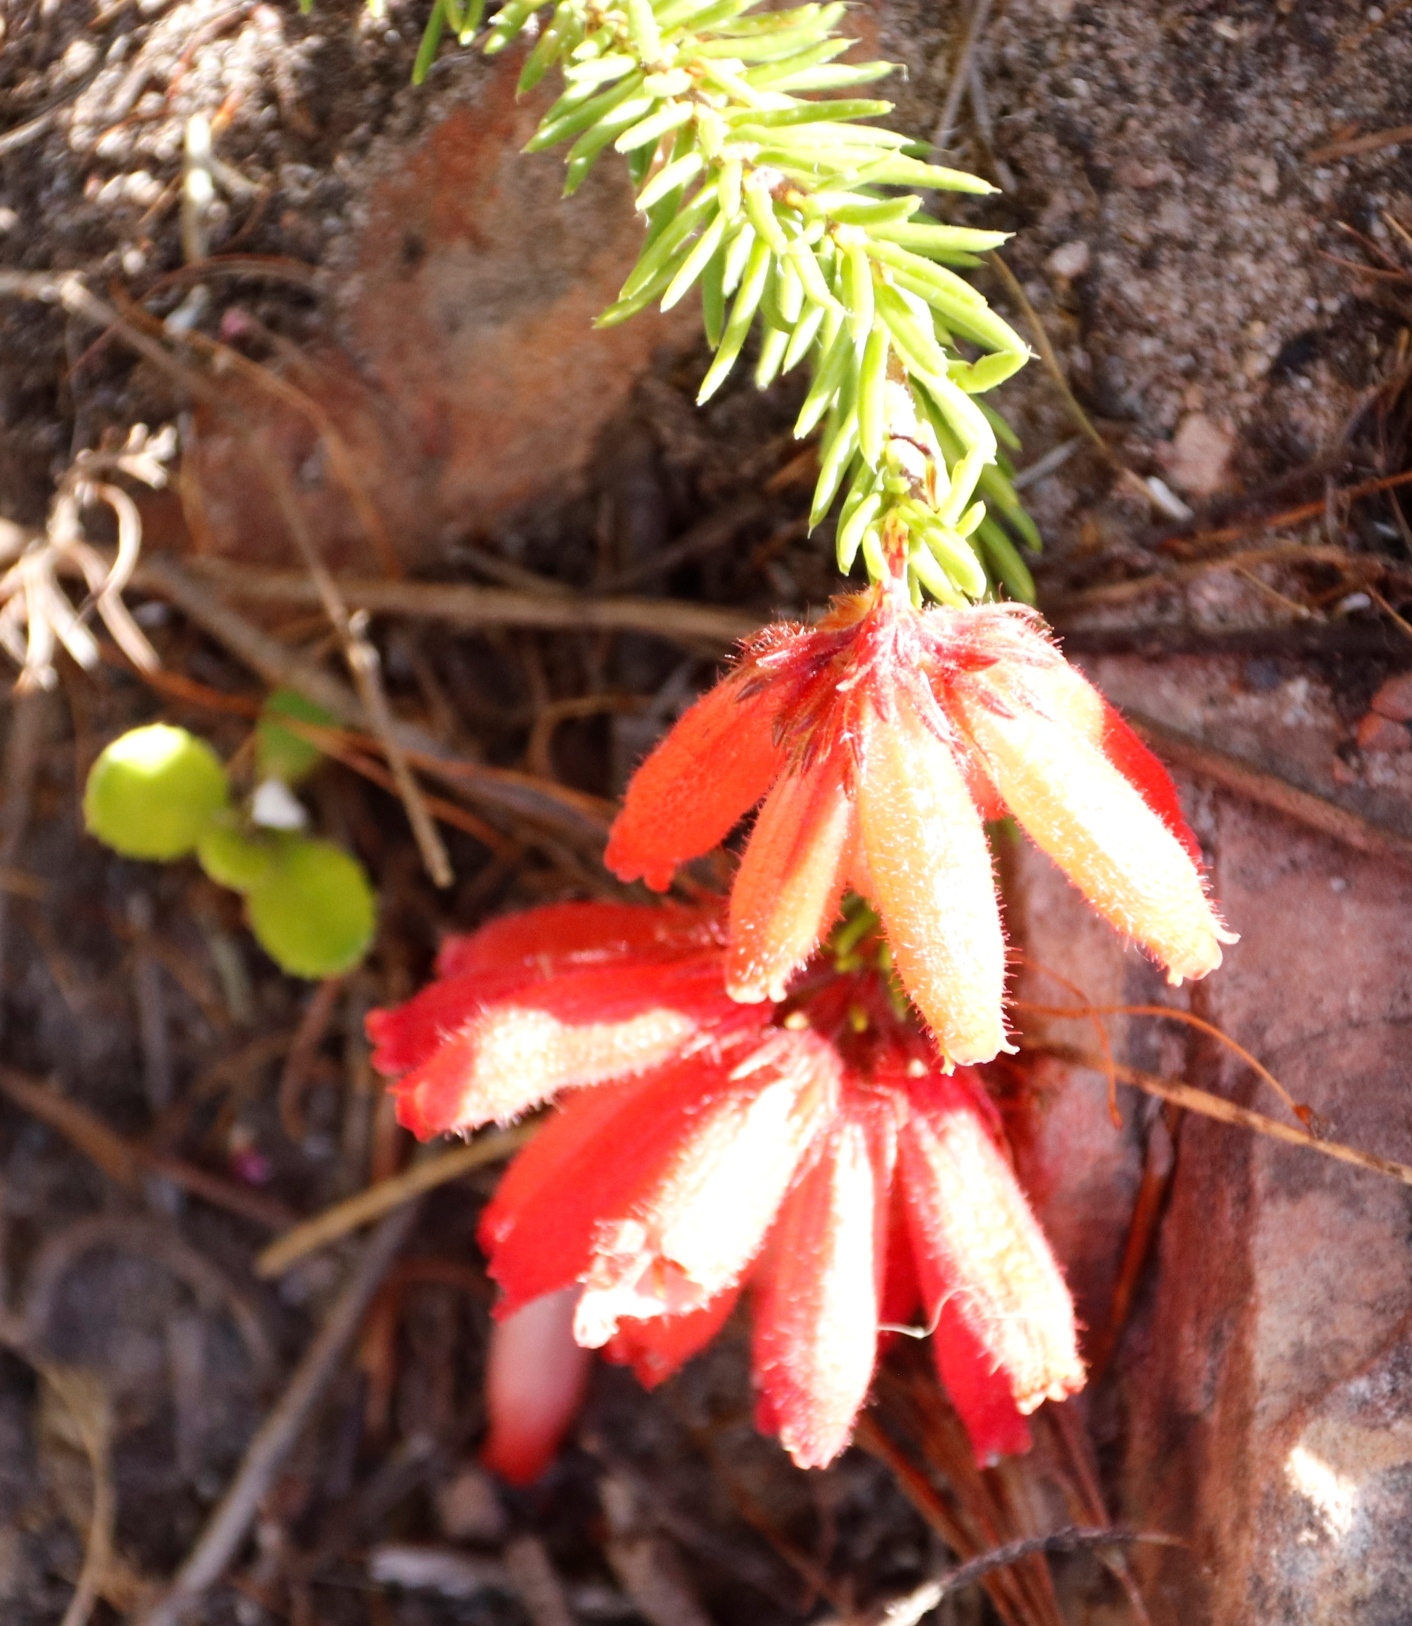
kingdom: Plantae
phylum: Tracheophyta
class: Magnoliopsida
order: Ericales
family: Ericaceae
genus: Erica
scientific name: Erica cerinthoides
